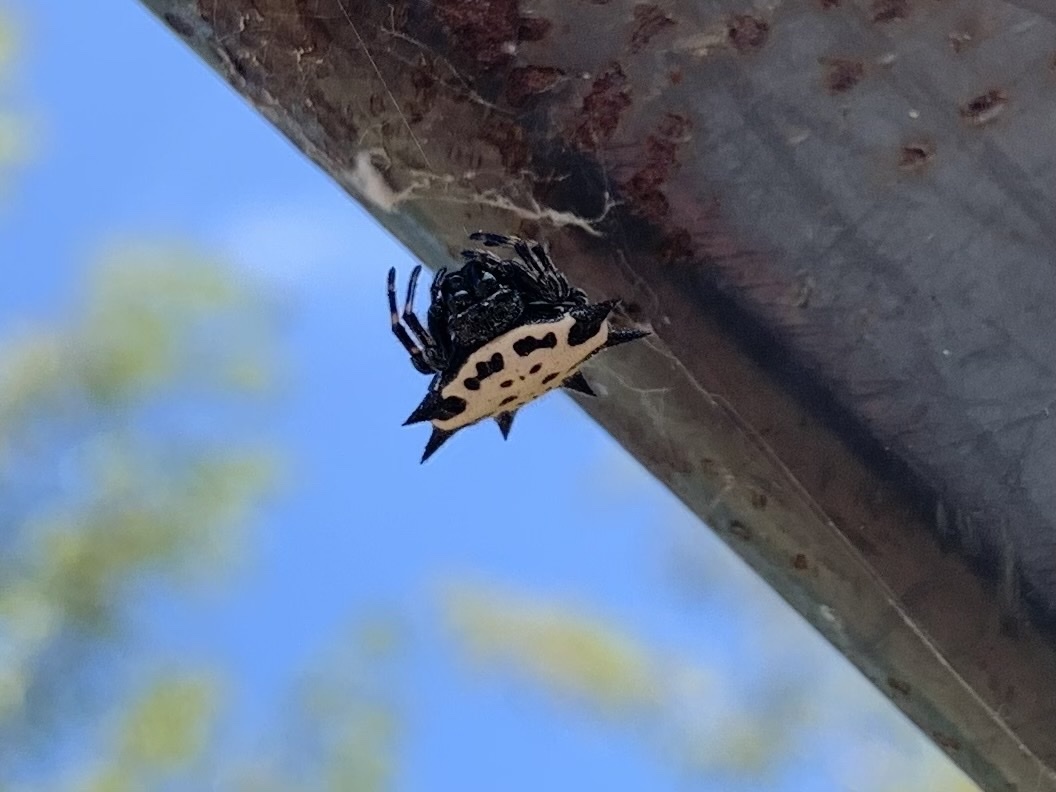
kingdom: Animalia
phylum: Arthropoda
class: Arachnida
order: Araneae
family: Araneidae
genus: Gasteracantha
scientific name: Gasteracantha cancriformis
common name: Orb weavers
